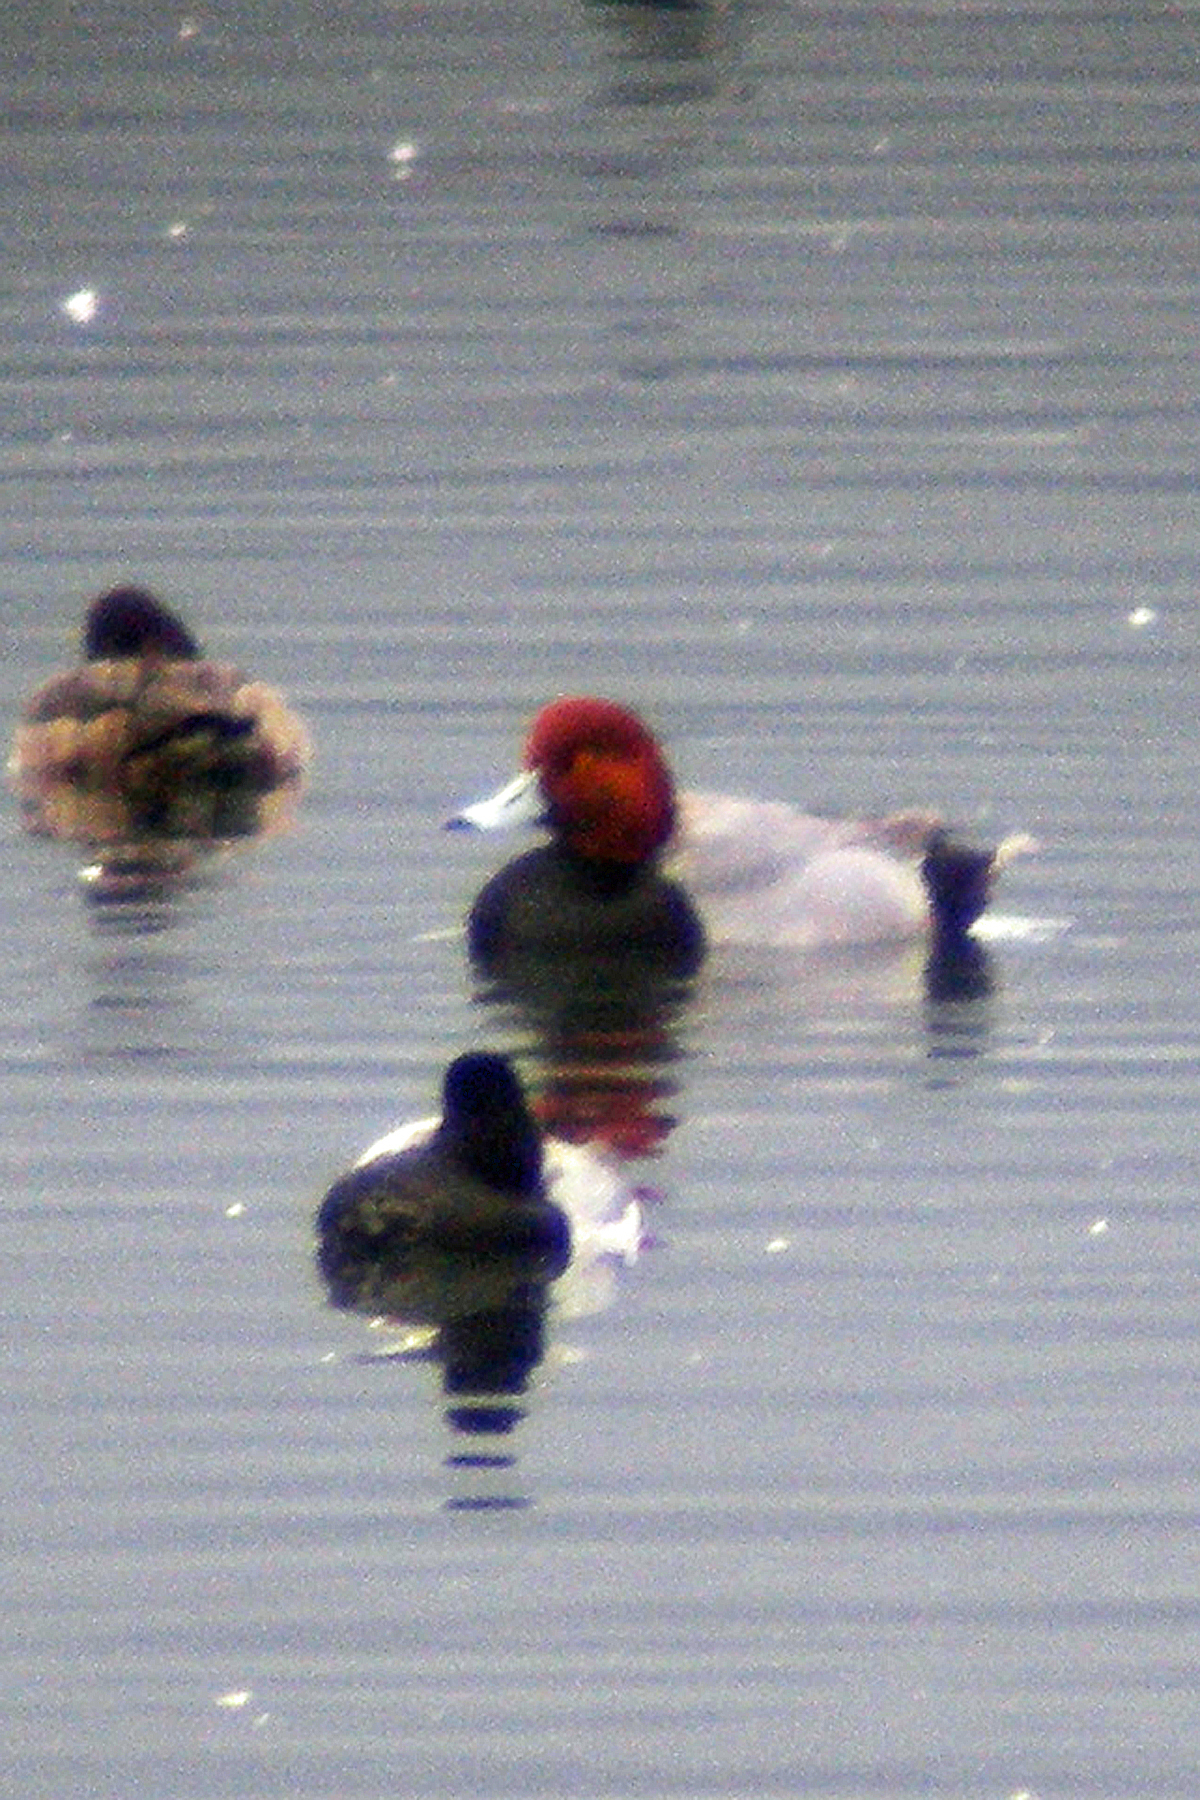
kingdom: Animalia
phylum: Chordata
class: Aves
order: Anseriformes
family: Anatidae
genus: Aythya
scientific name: Aythya americana
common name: Redhead
